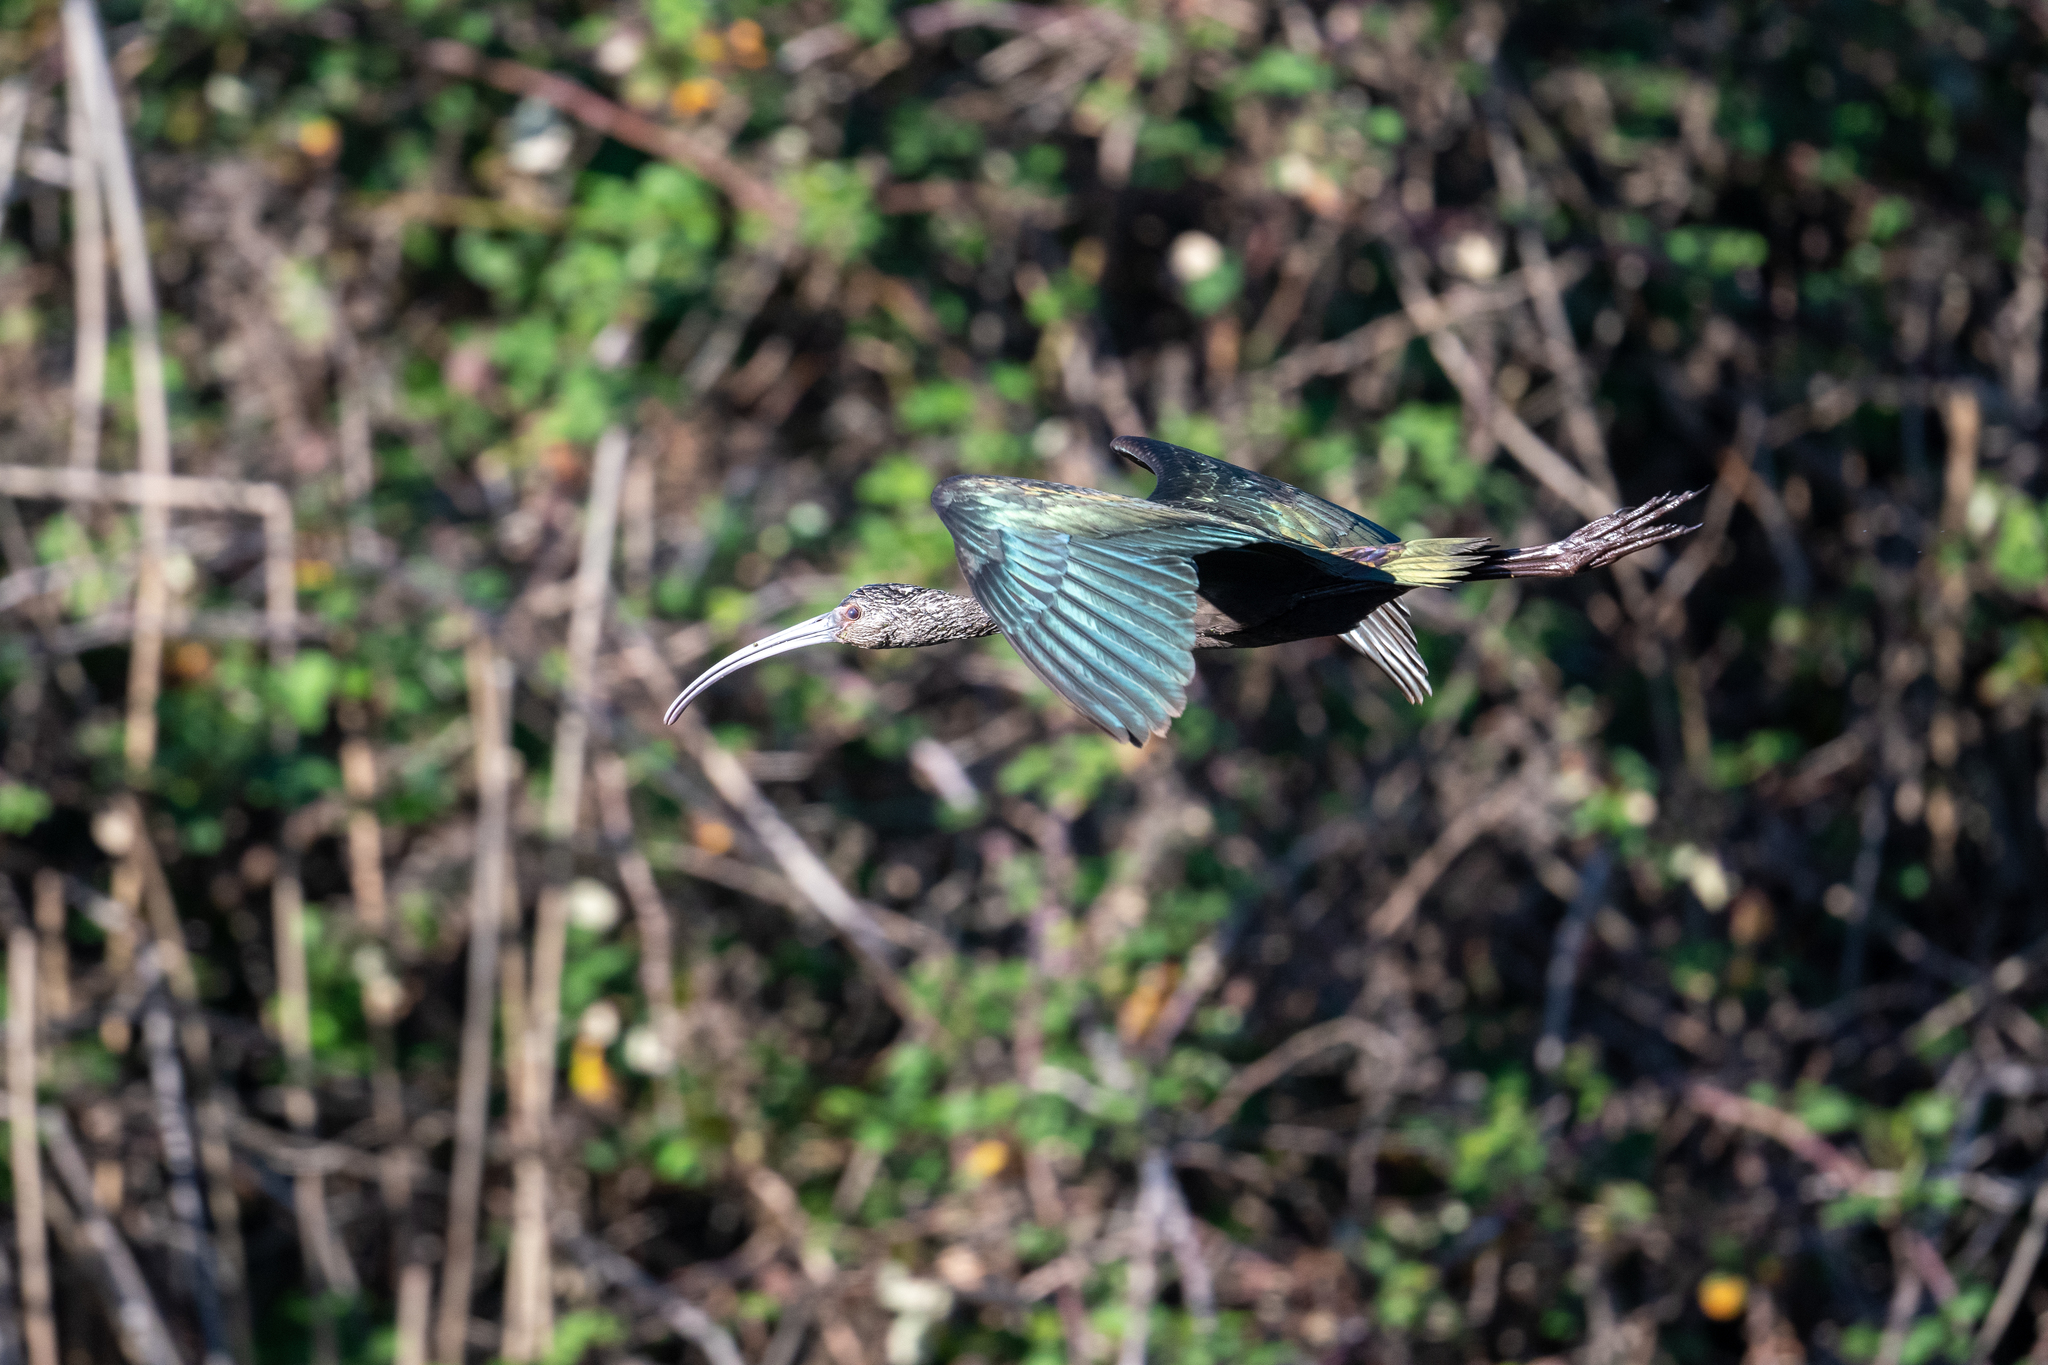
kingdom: Animalia
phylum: Chordata
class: Aves
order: Pelecaniformes
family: Threskiornithidae
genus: Plegadis
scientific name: Plegadis chihi
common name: White-faced ibis
